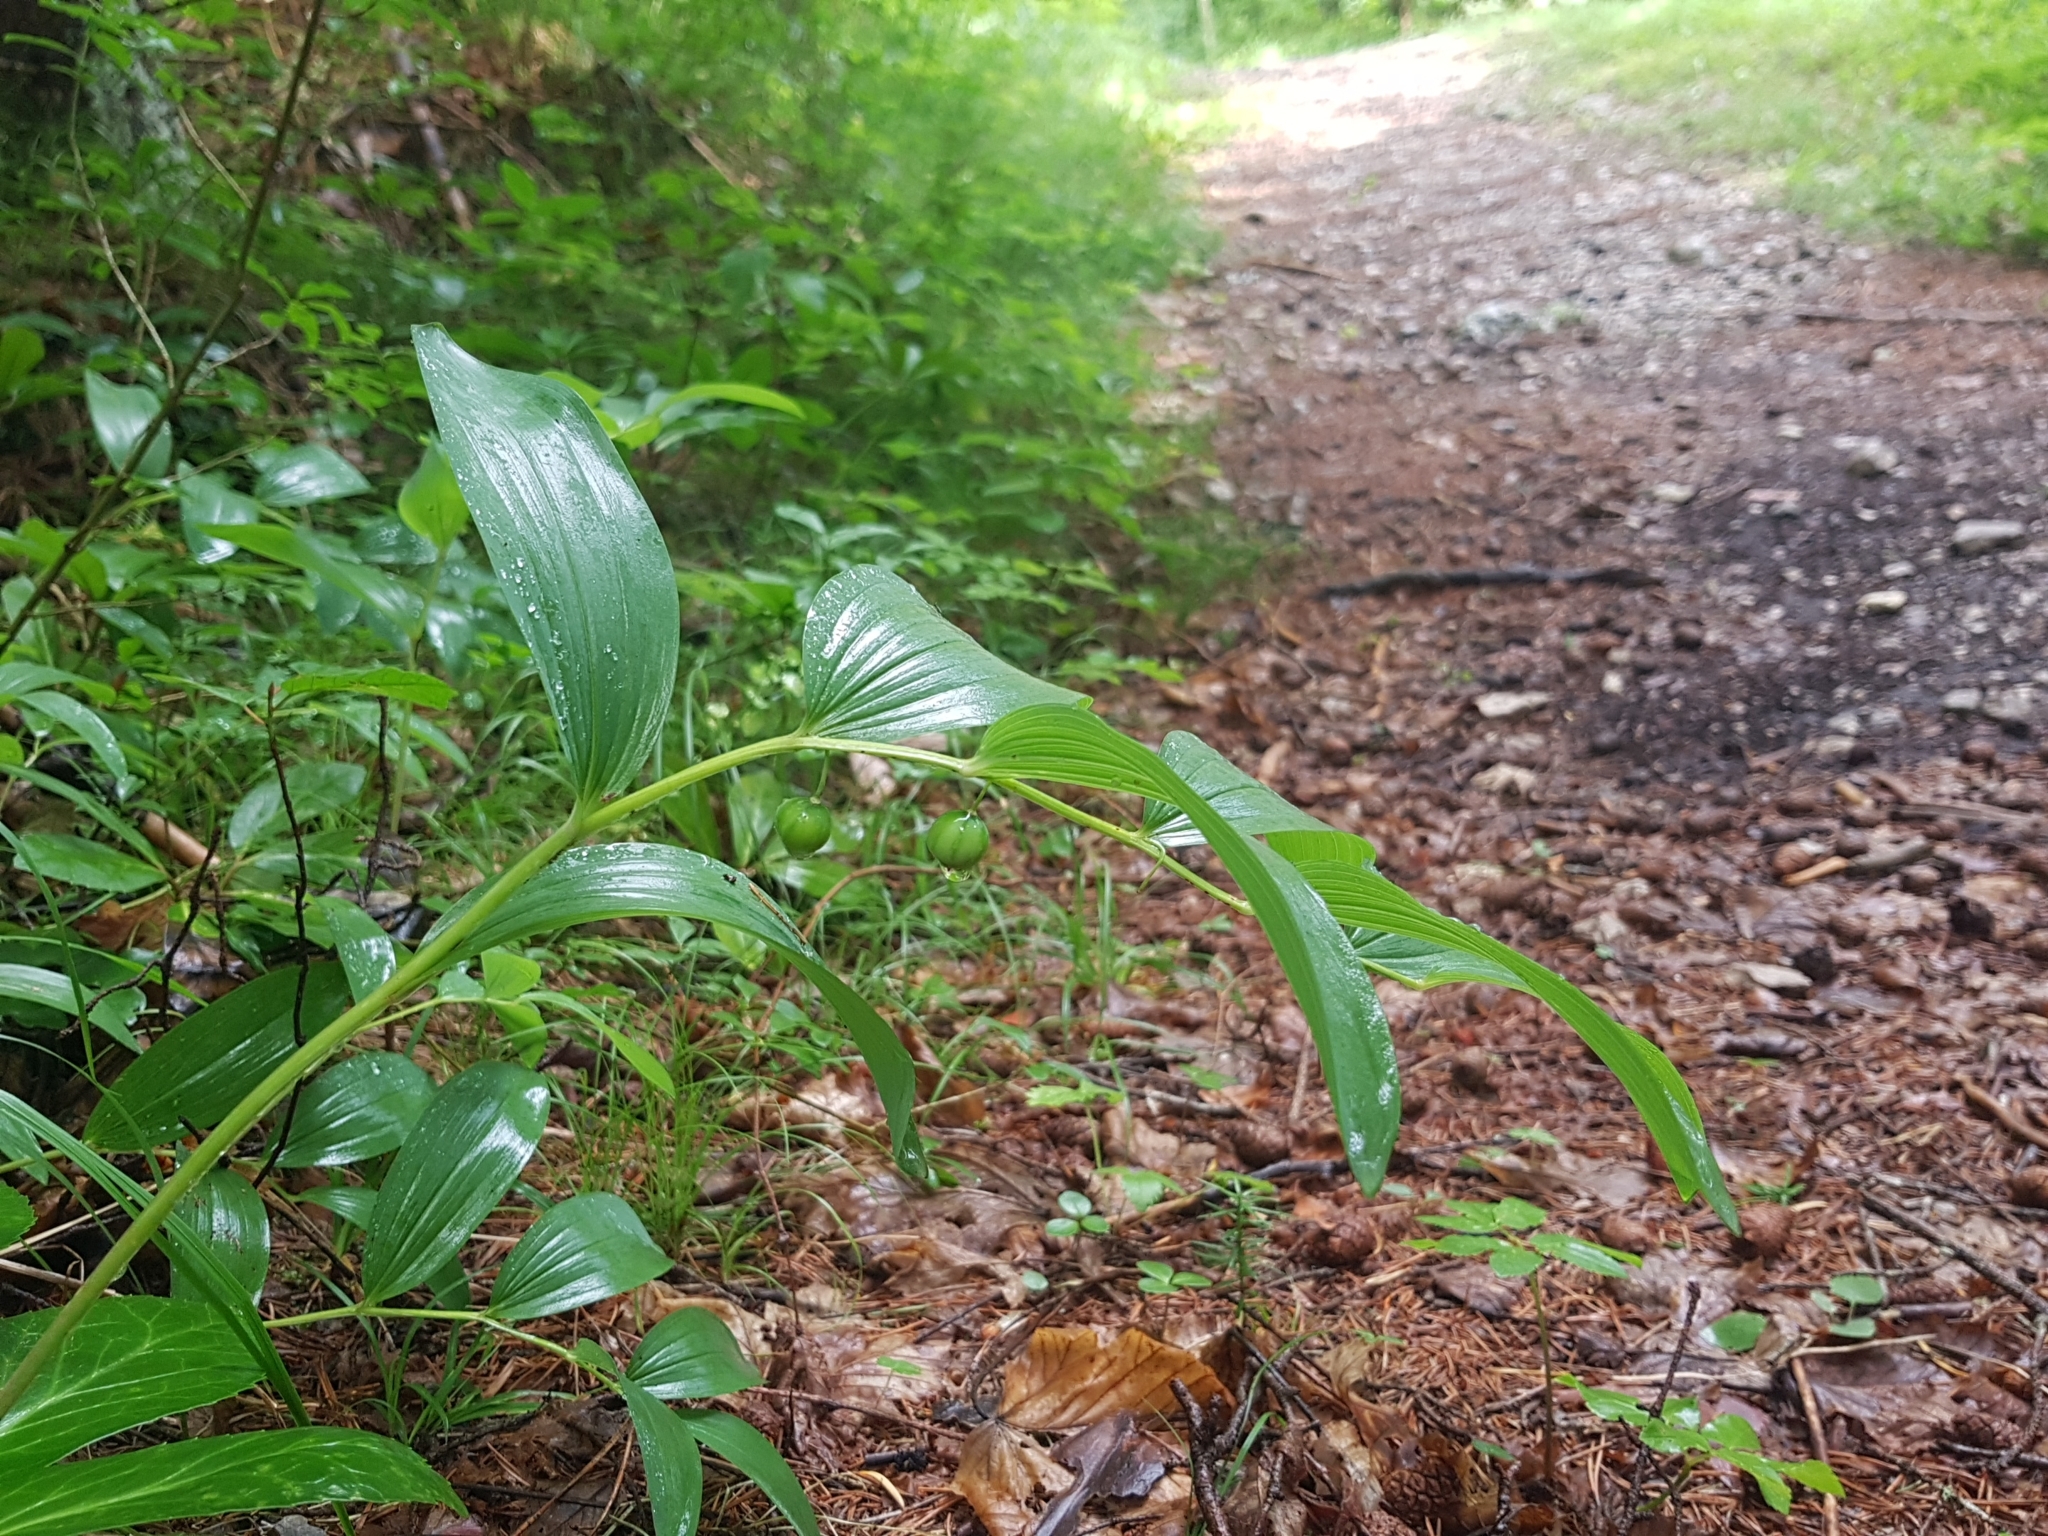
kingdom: Plantae
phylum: Tracheophyta
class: Liliopsida
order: Asparagales
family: Asparagaceae
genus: Polygonatum
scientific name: Polygonatum odoratum
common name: Angular solomon's-seal
